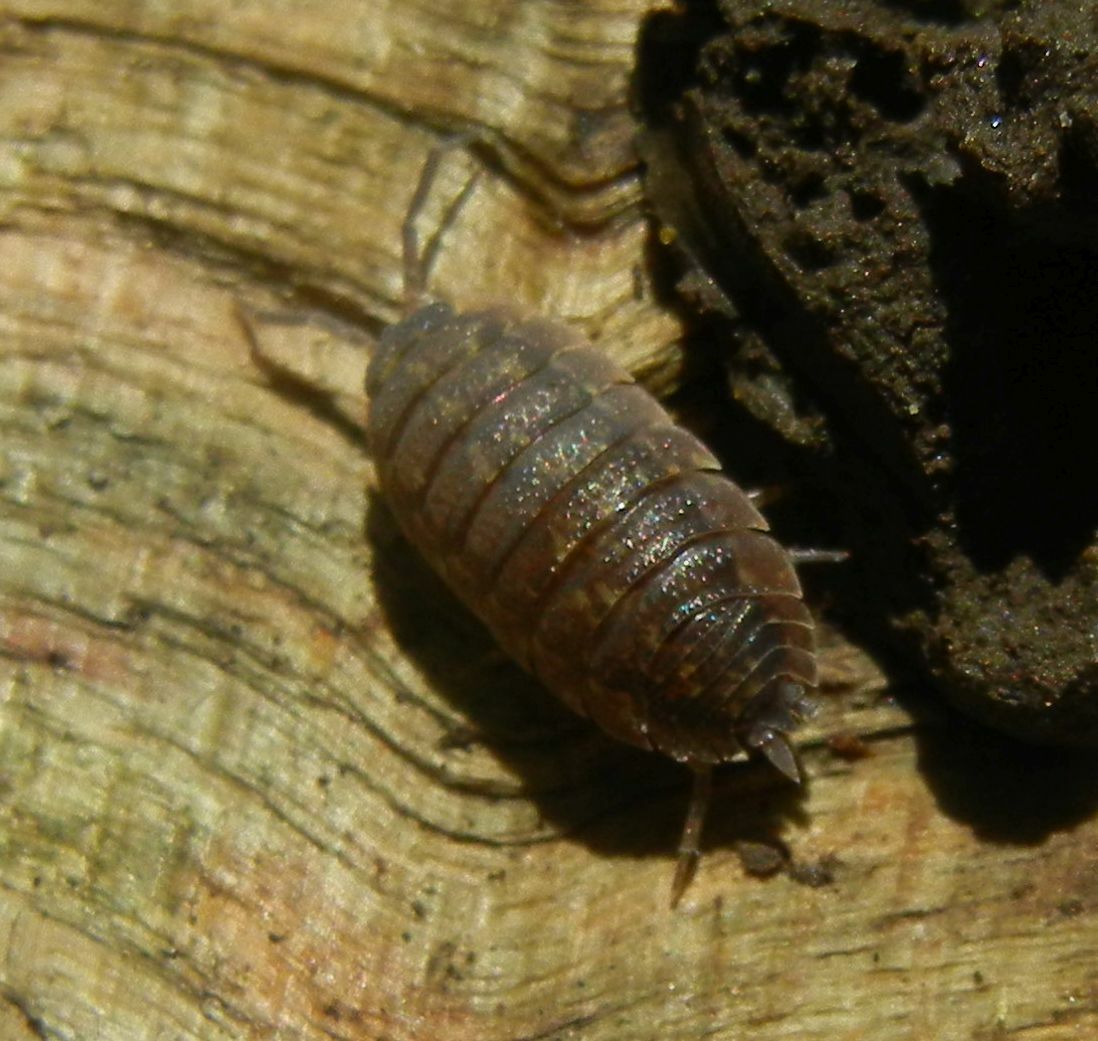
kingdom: Animalia
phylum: Arthropoda
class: Malacostraca
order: Isopoda
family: Porcellionidae
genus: Porcellio
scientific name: Porcellio scaber
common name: Common rough woodlouse
